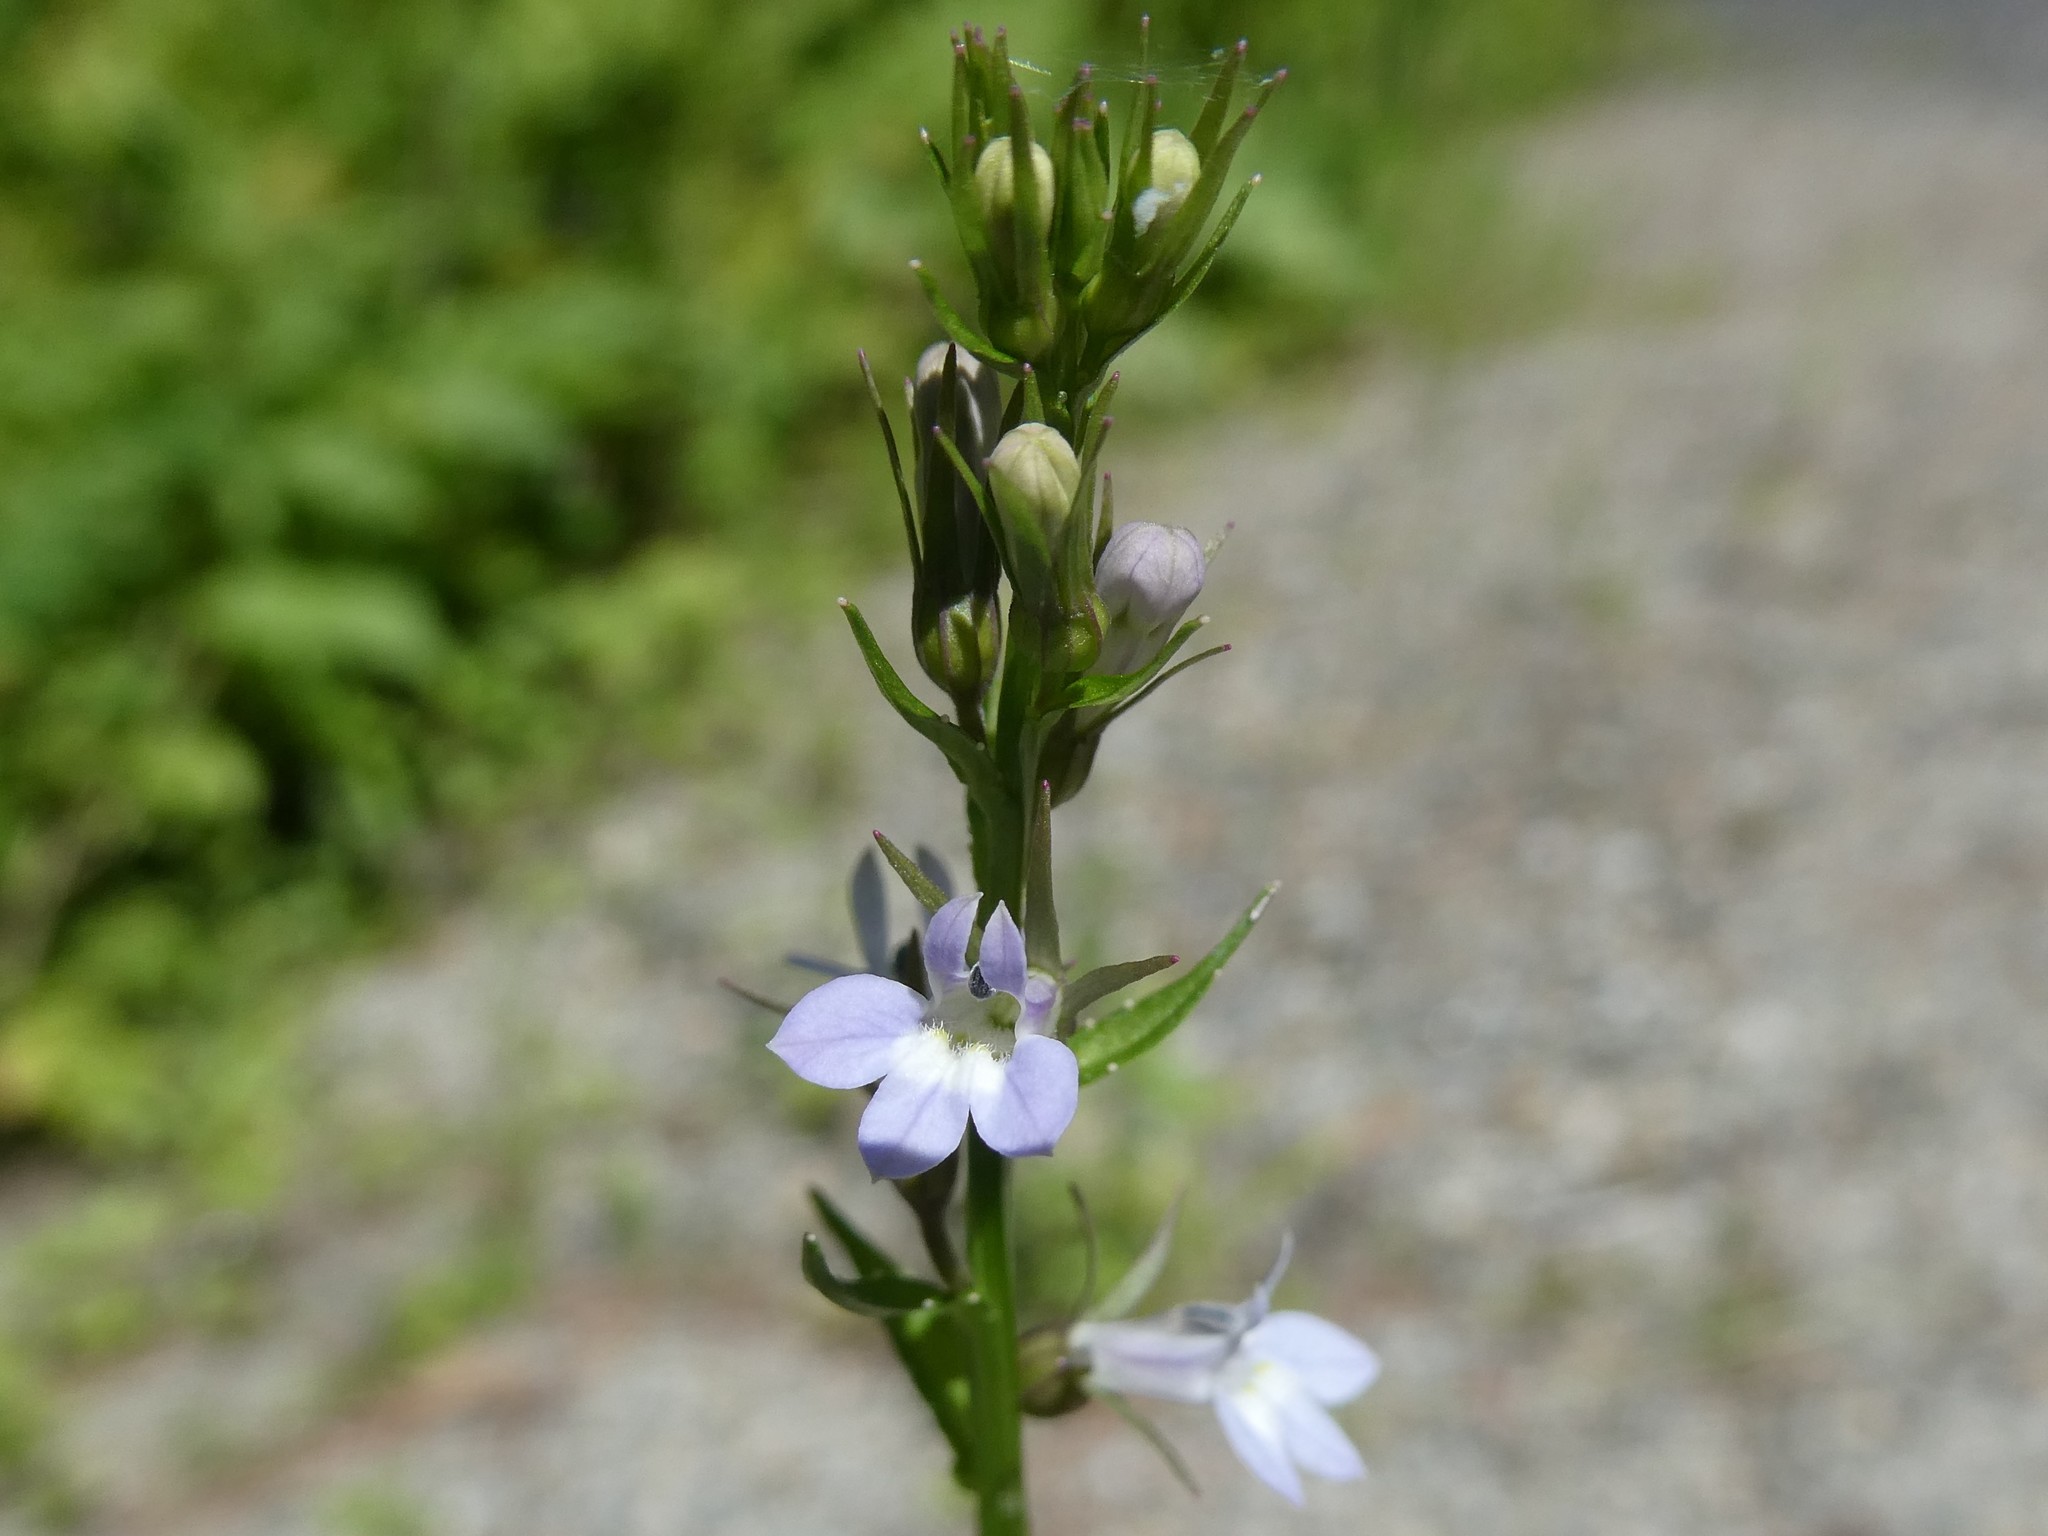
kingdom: Plantae
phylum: Tracheophyta
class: Magnoliopsida
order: Asterales
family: Campanulaceae
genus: Lobelia
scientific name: Lobelia inflata
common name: Indian tobacco
